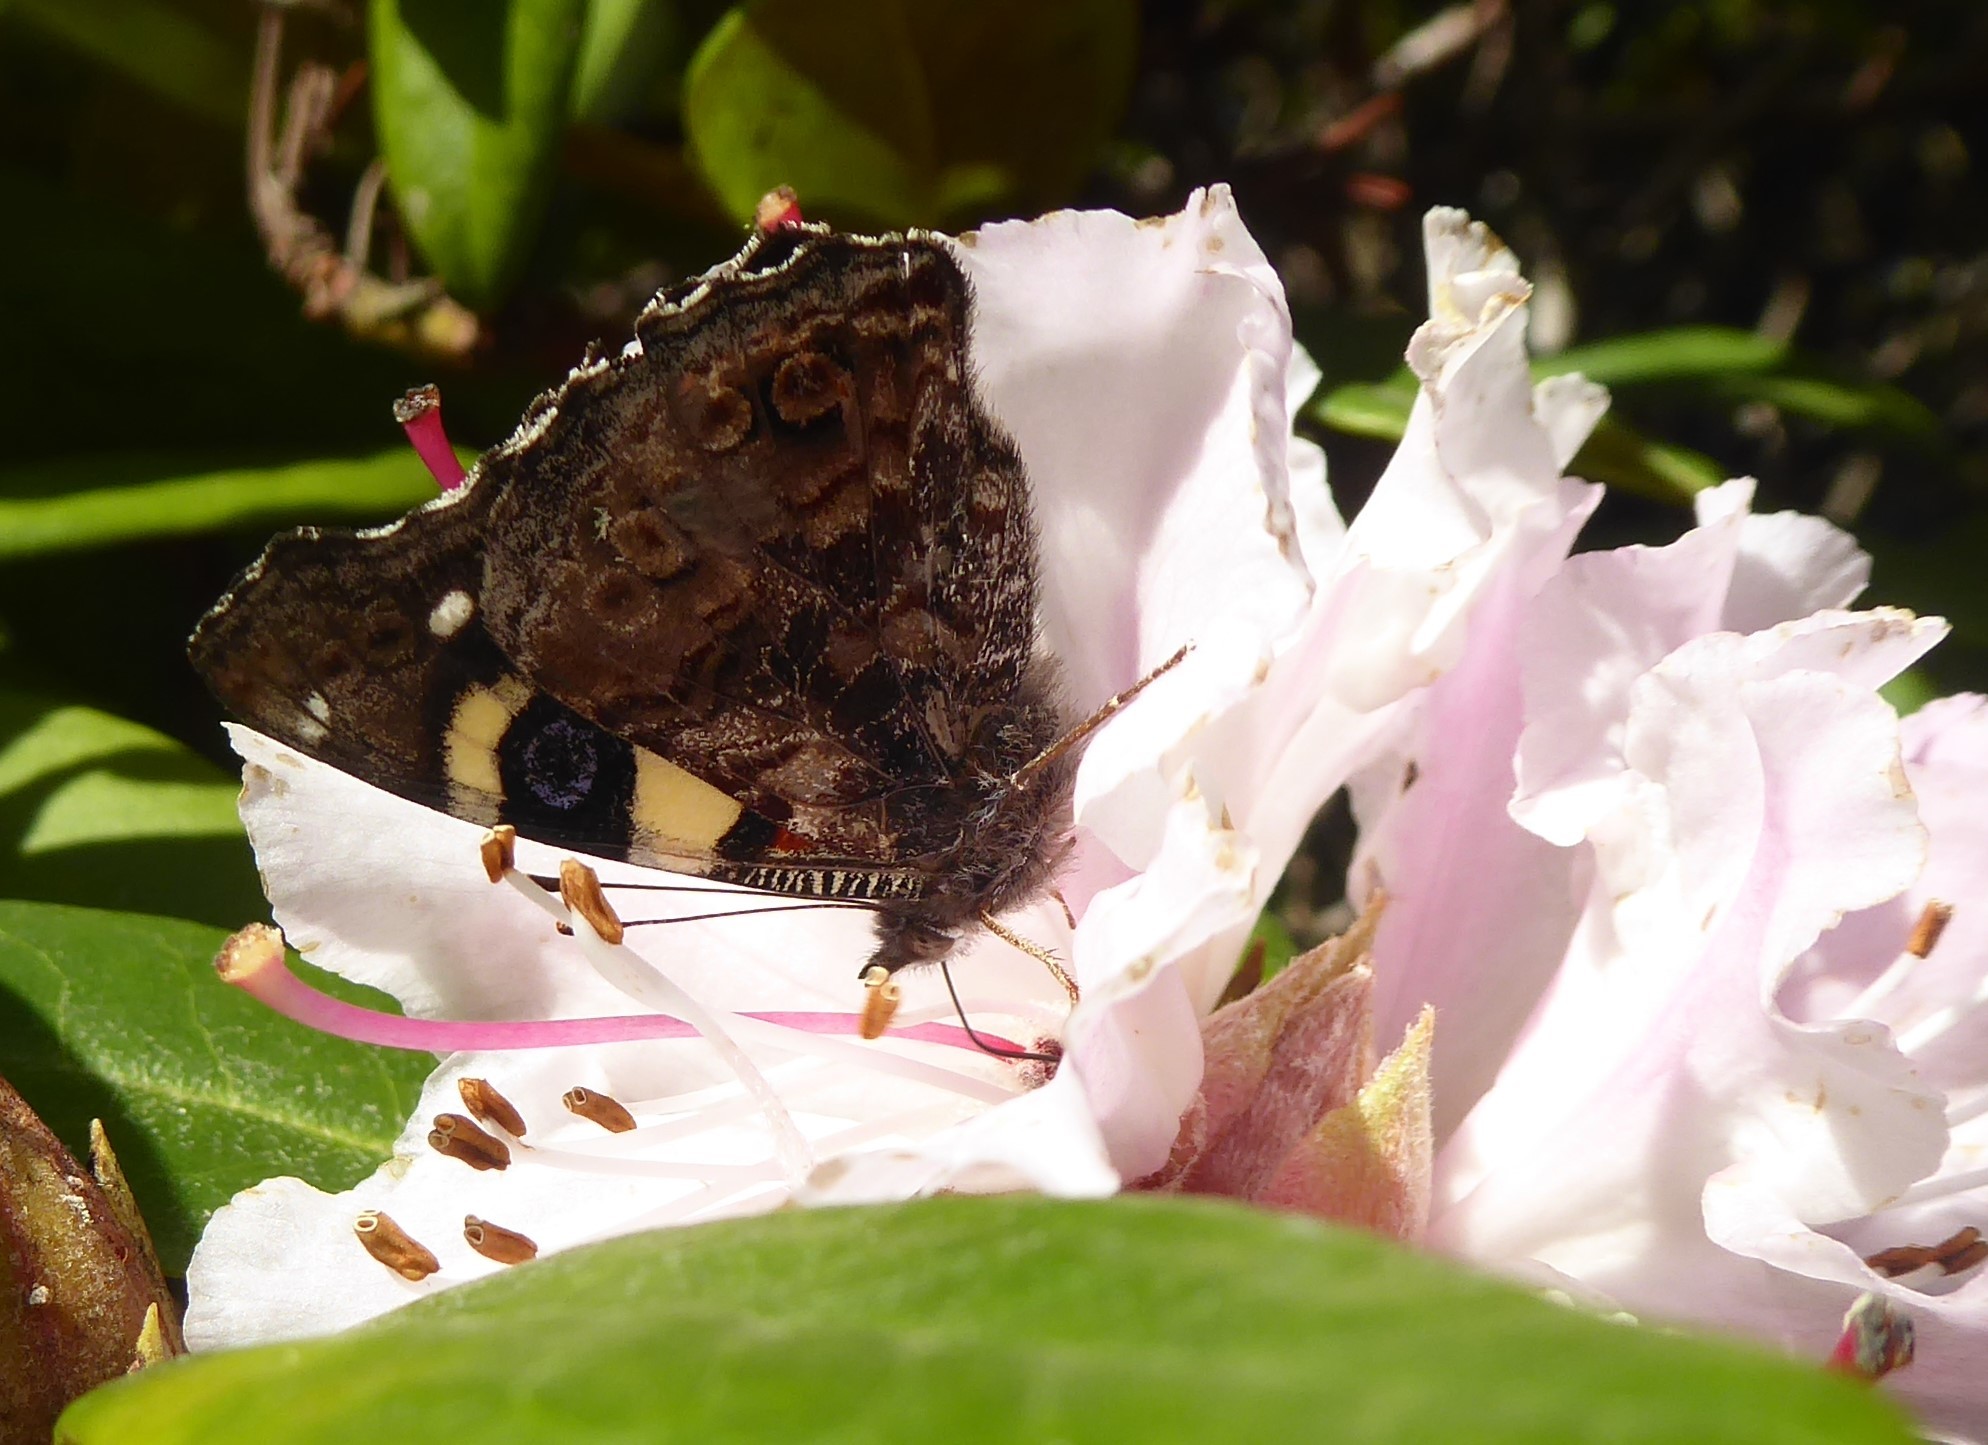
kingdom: Animalia
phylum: Arthropoda
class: Insecta
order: Lepidoptera
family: Nymphalidae
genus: Vanessa
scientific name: Vanessa itea
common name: Yellow admiral
